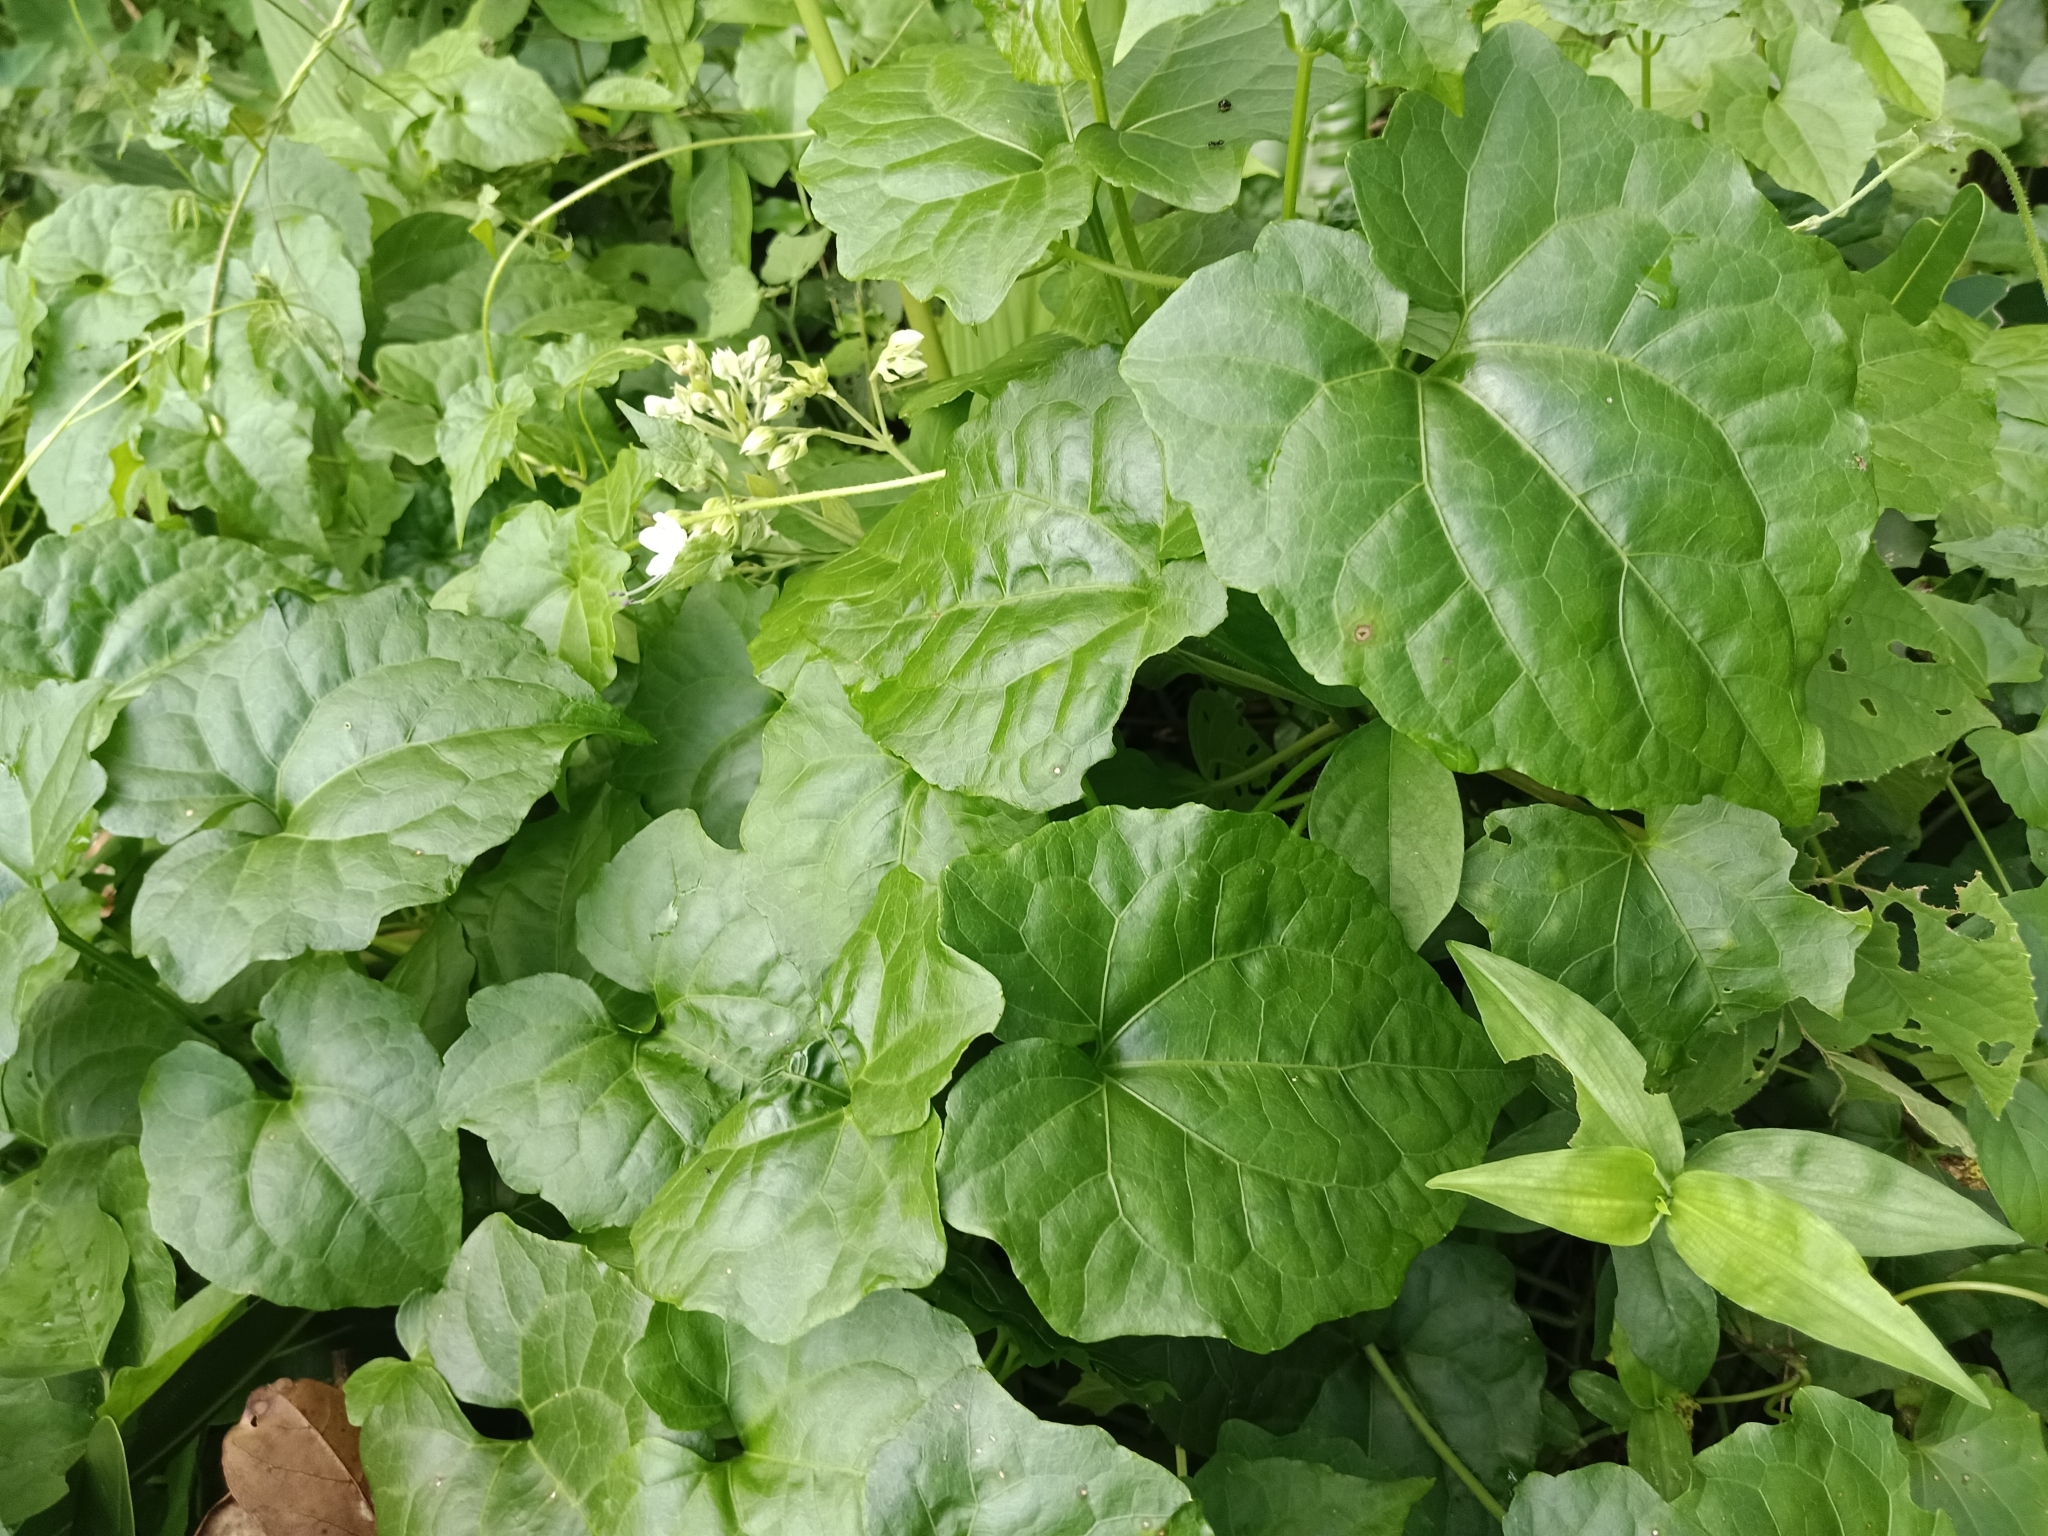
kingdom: Plantae
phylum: Tracheophyta
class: Magnoliopsida
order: Asterales
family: Asteraceae
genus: Mikania
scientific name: Mikania micrantha
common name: Mile-a-minute
